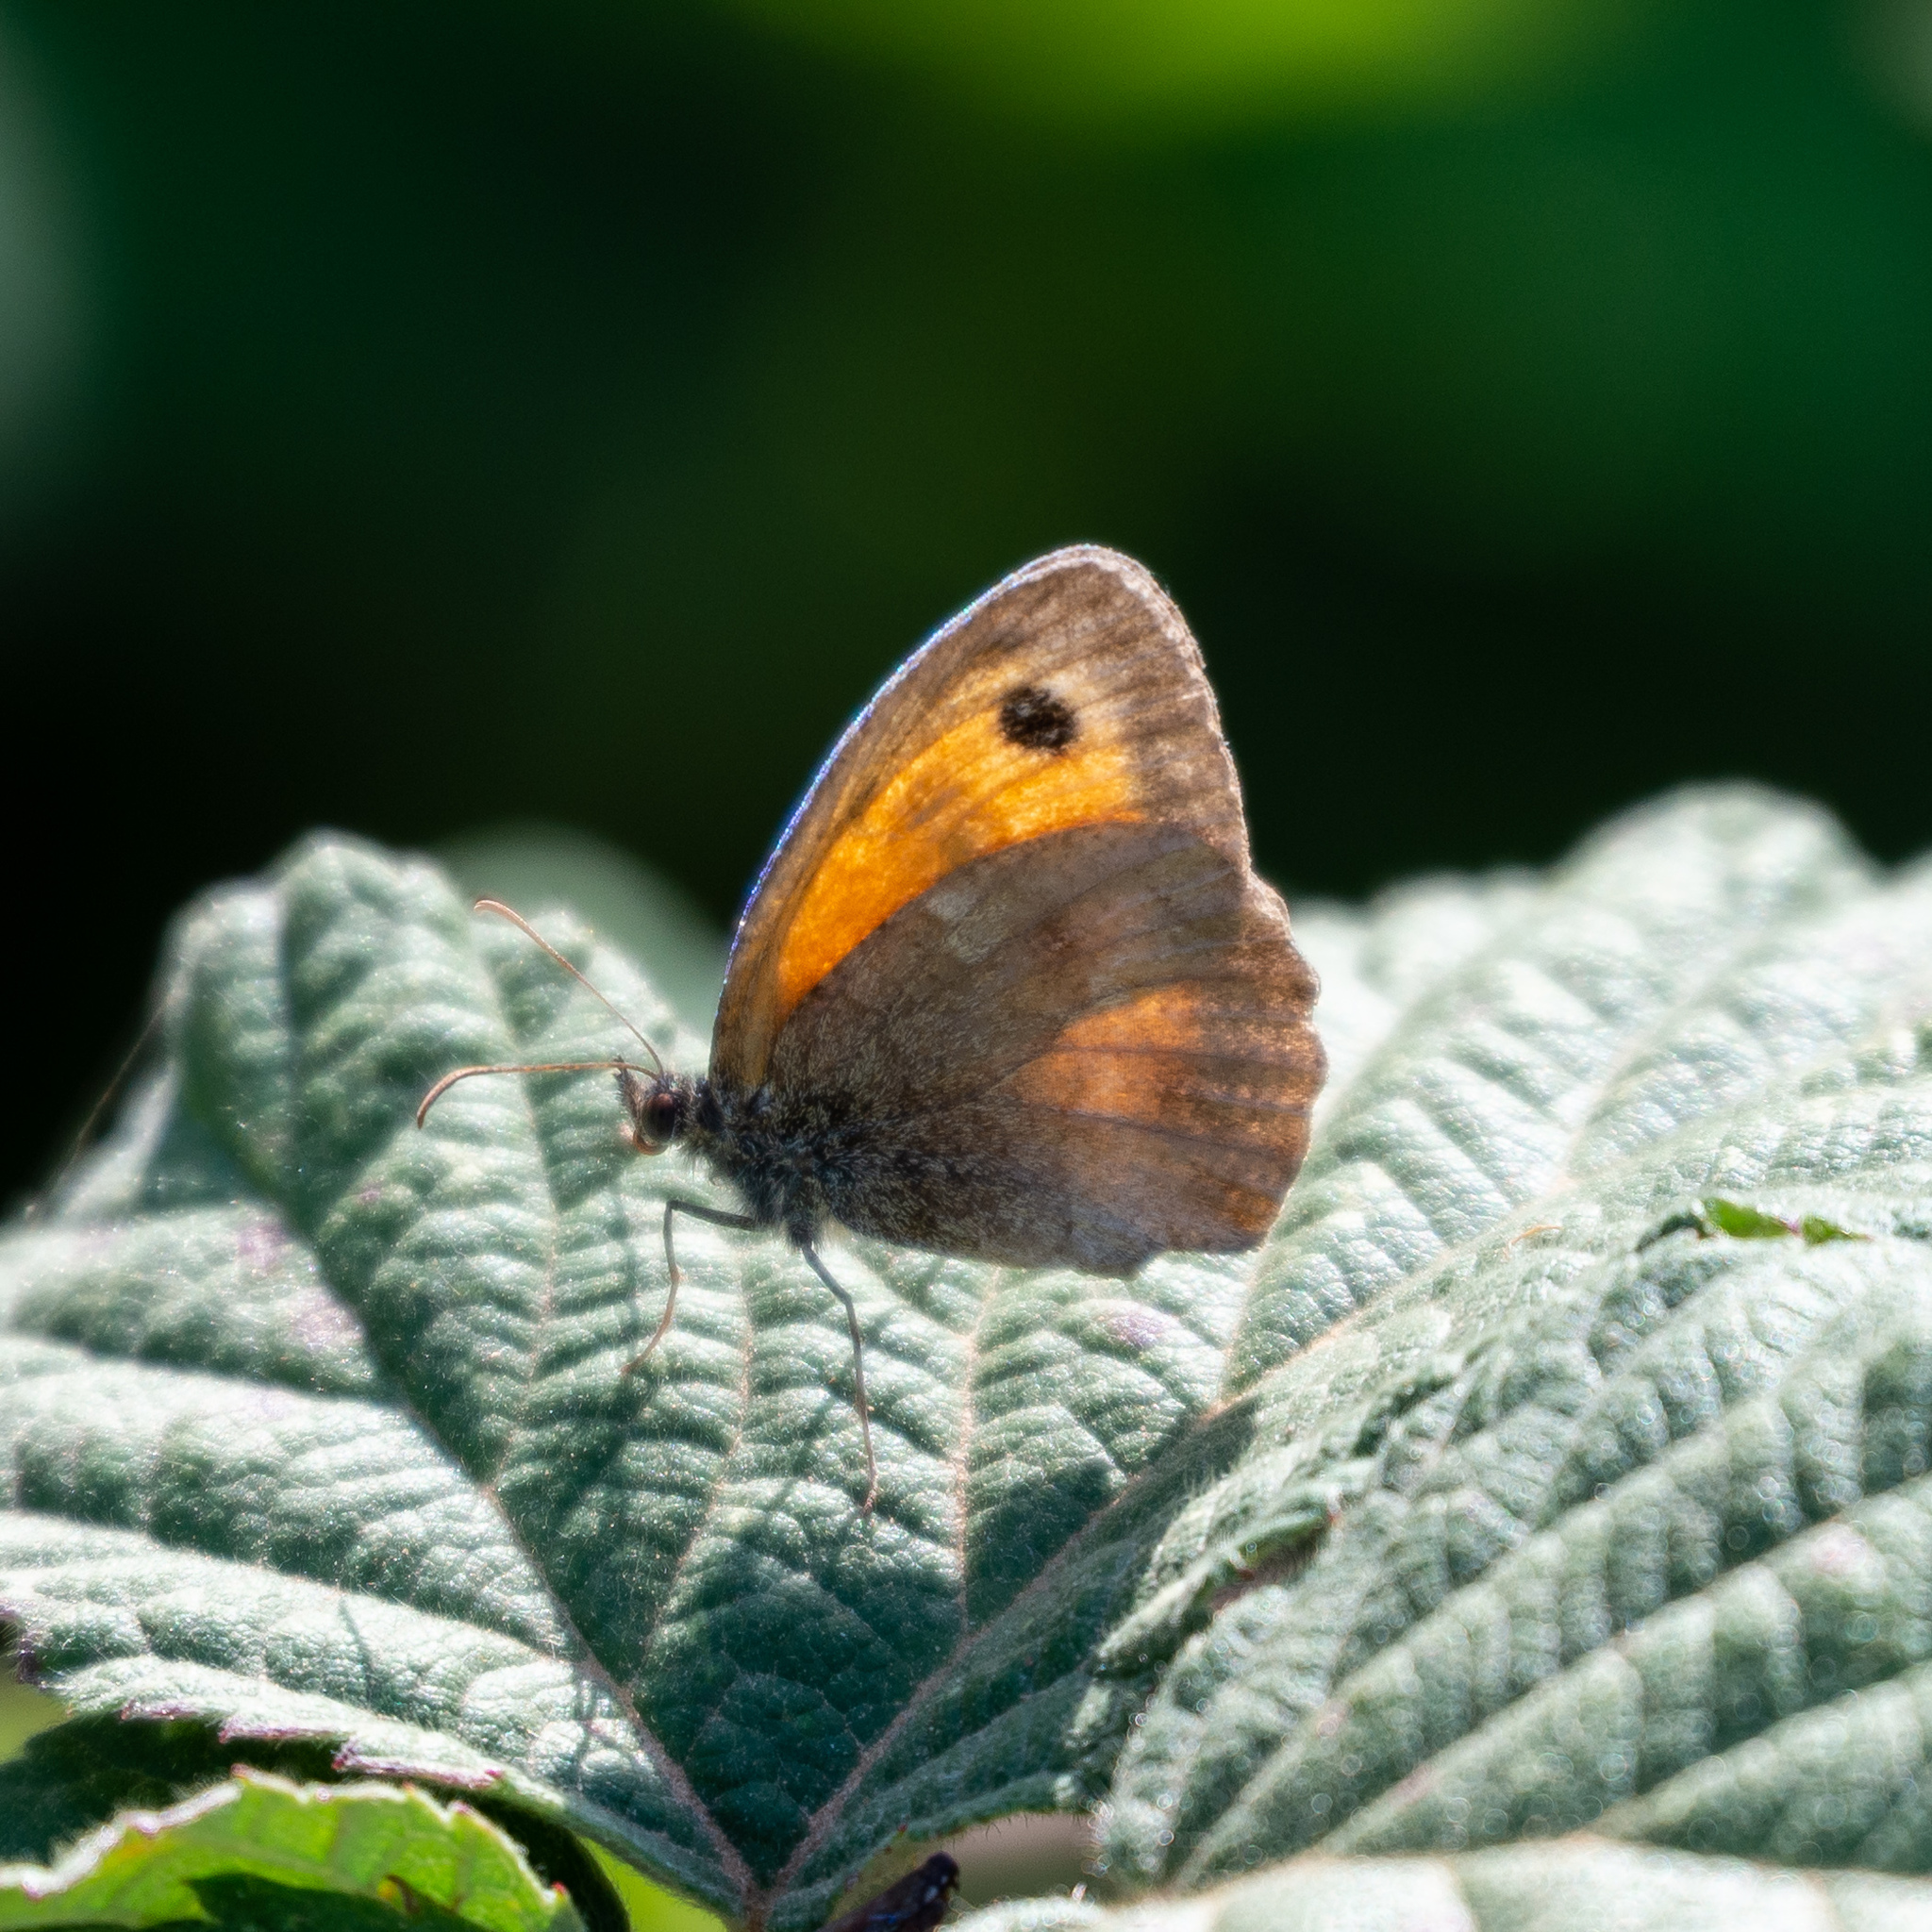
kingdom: Animalia
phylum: Arthropoda
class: Insecta
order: Lepidoptera
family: Nymphalidae
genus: Pyronia
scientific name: Pyronia cecilia
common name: Southern gatekeeper
